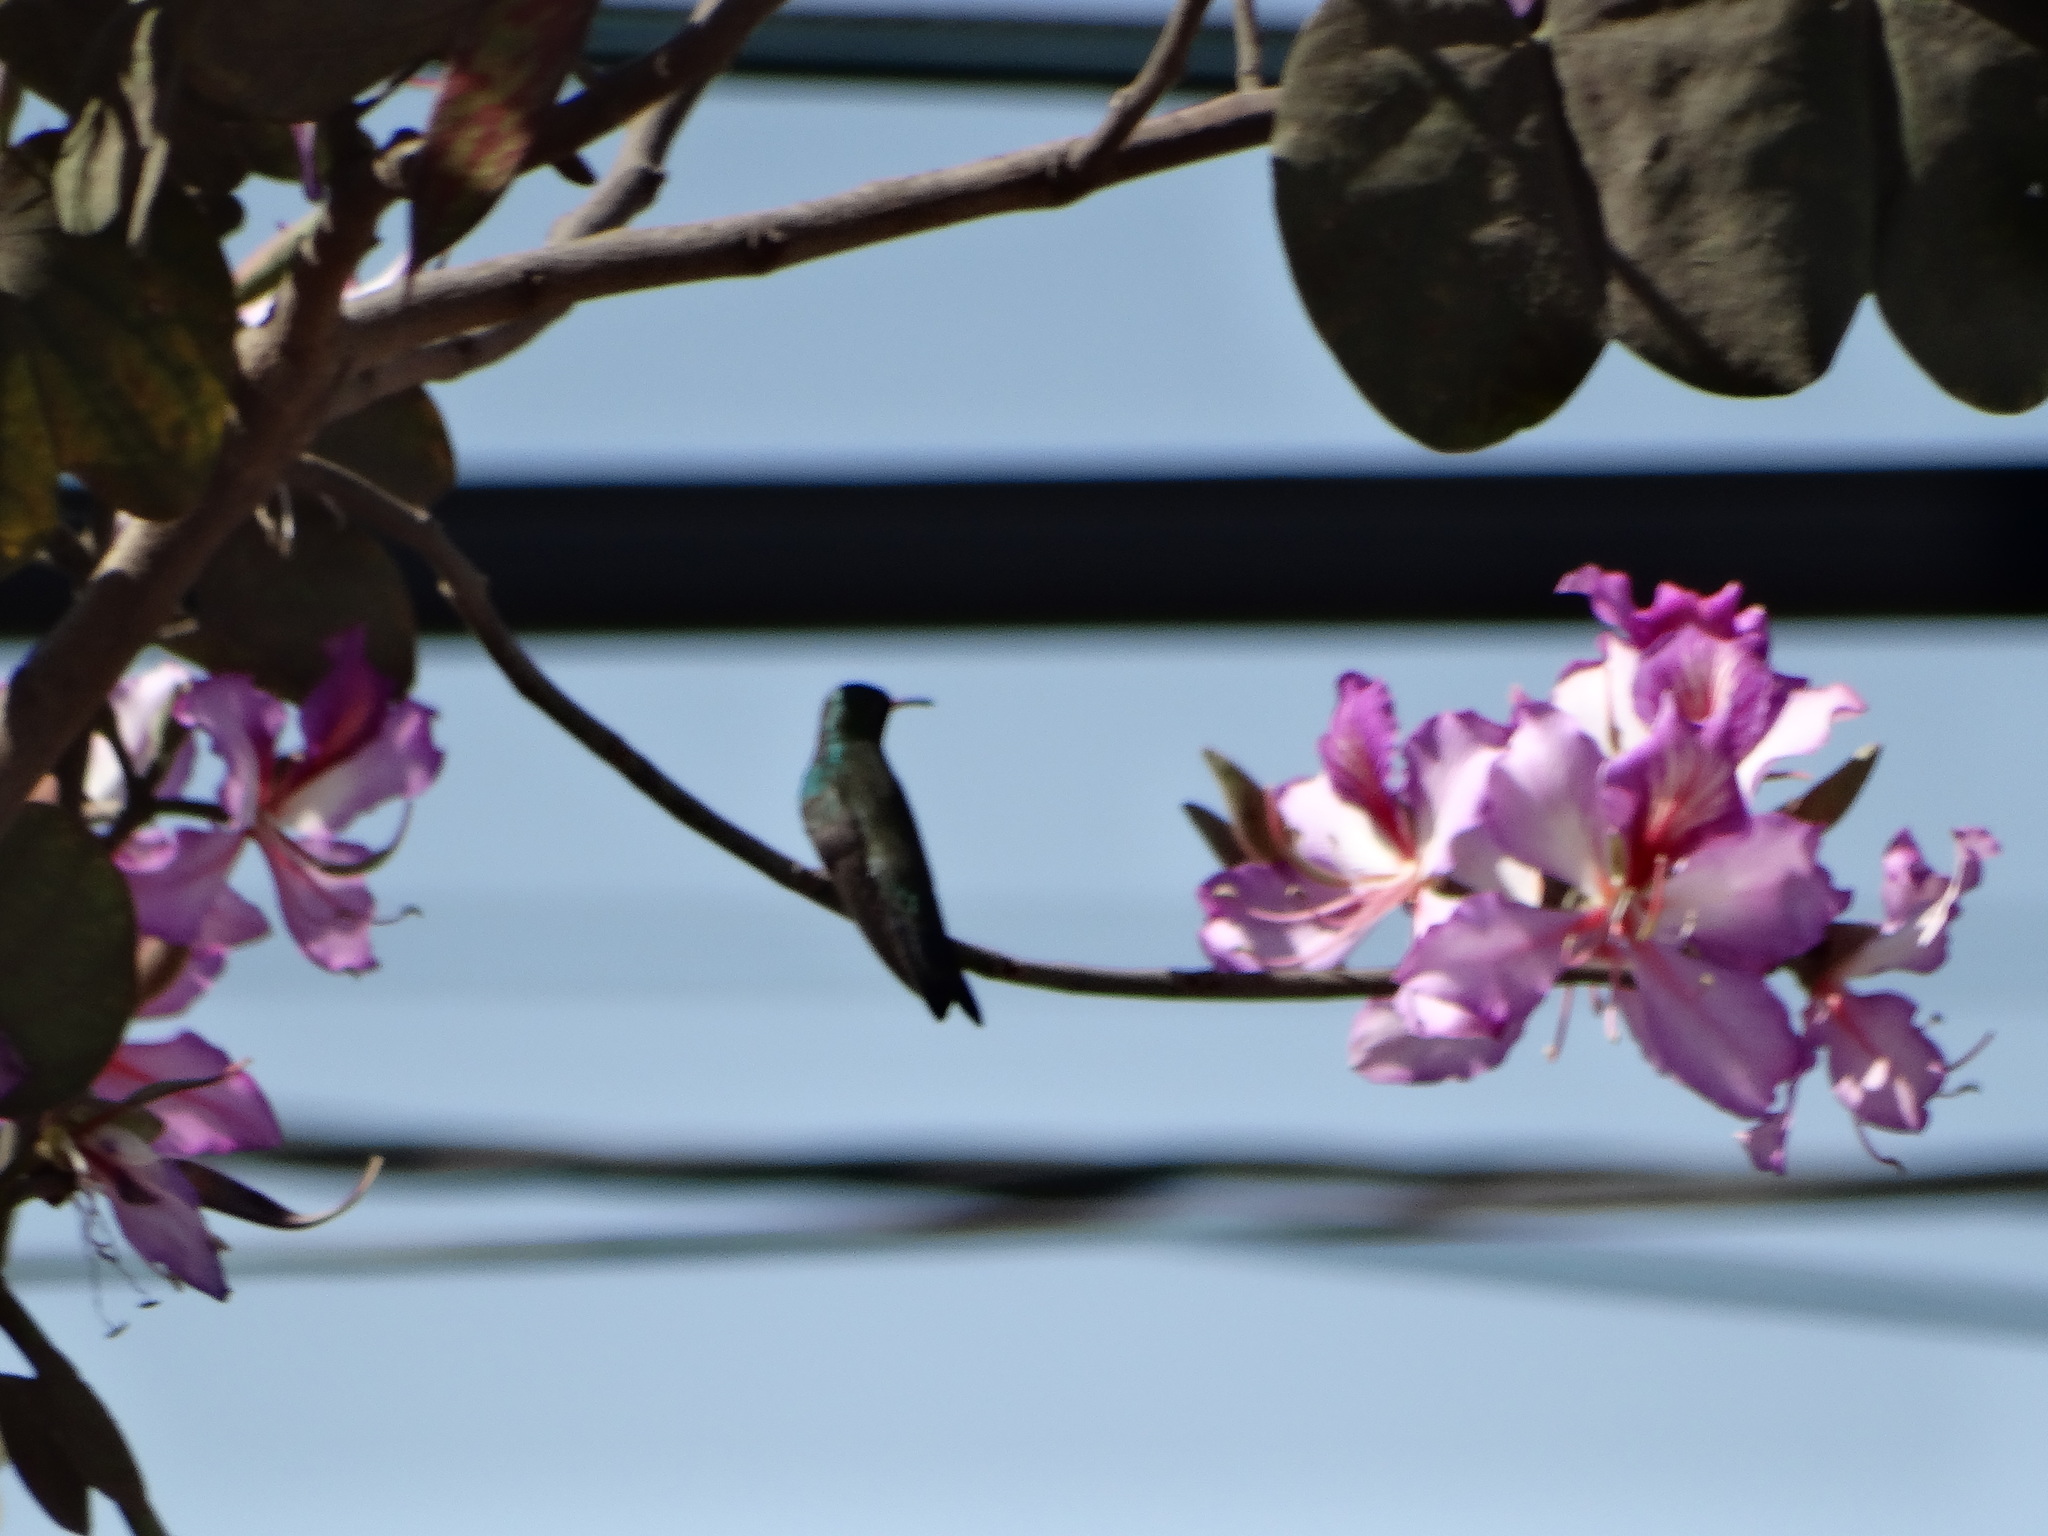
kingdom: Animalia
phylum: Chordata
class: Aves
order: Apodiformes
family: Trochilidae
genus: Cynanthus
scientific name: Cynanthus latirostris
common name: Broad-billed hummingbird
